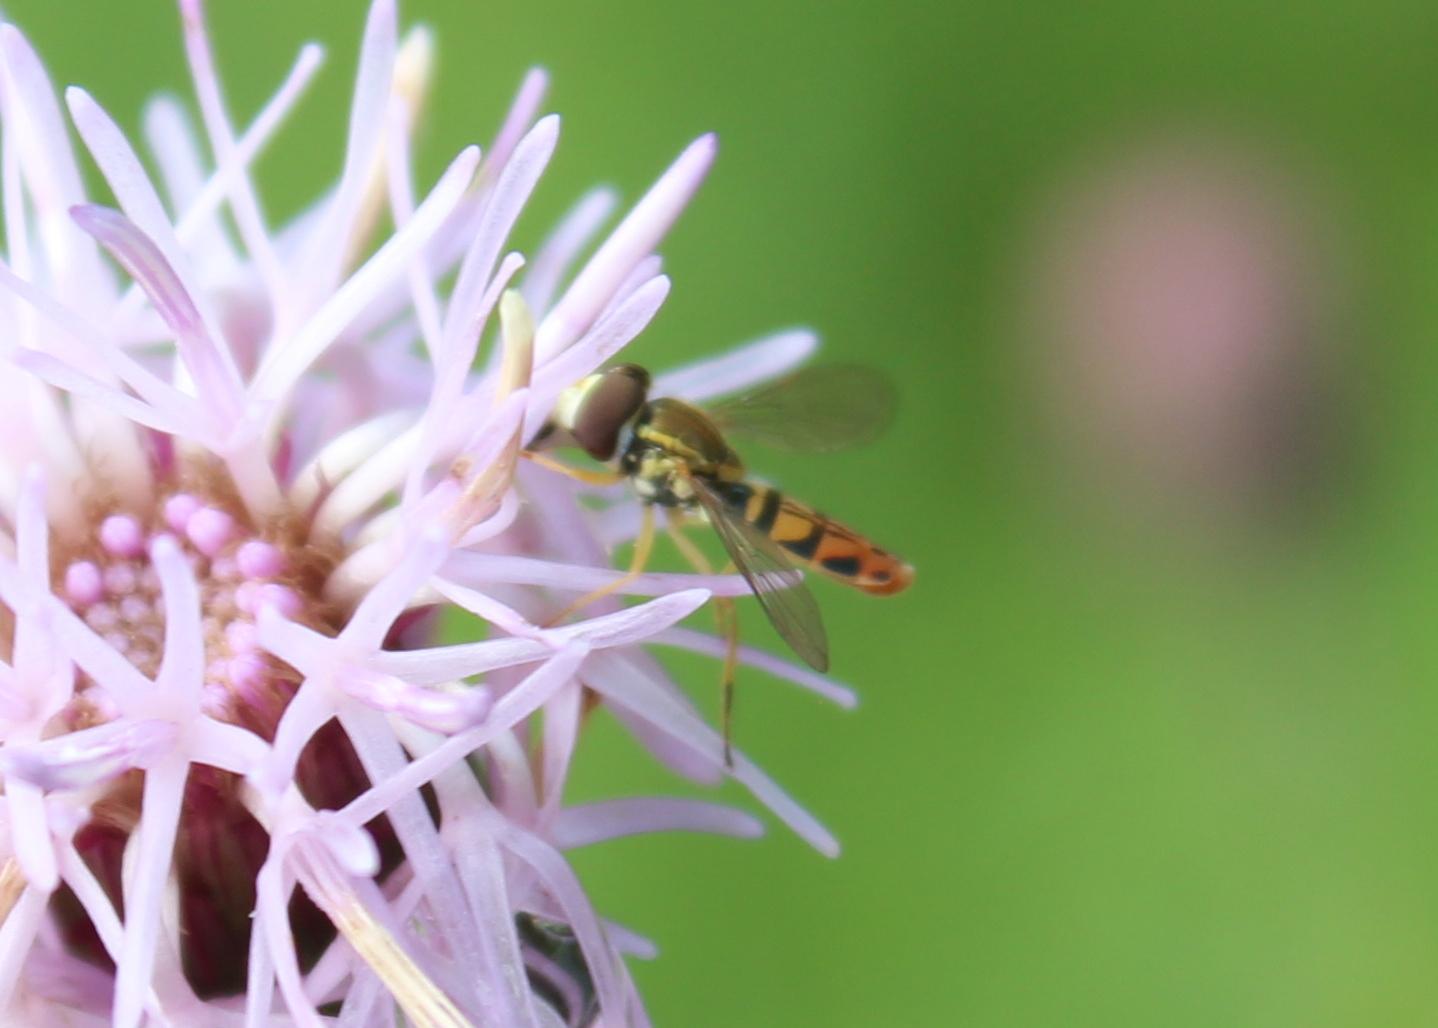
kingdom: Animalia
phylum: Arthropoda
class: Insecta
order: Diptera
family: Syrphidae
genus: Toxomerus
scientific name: Toxomerus marginatus
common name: Syrphid fly
